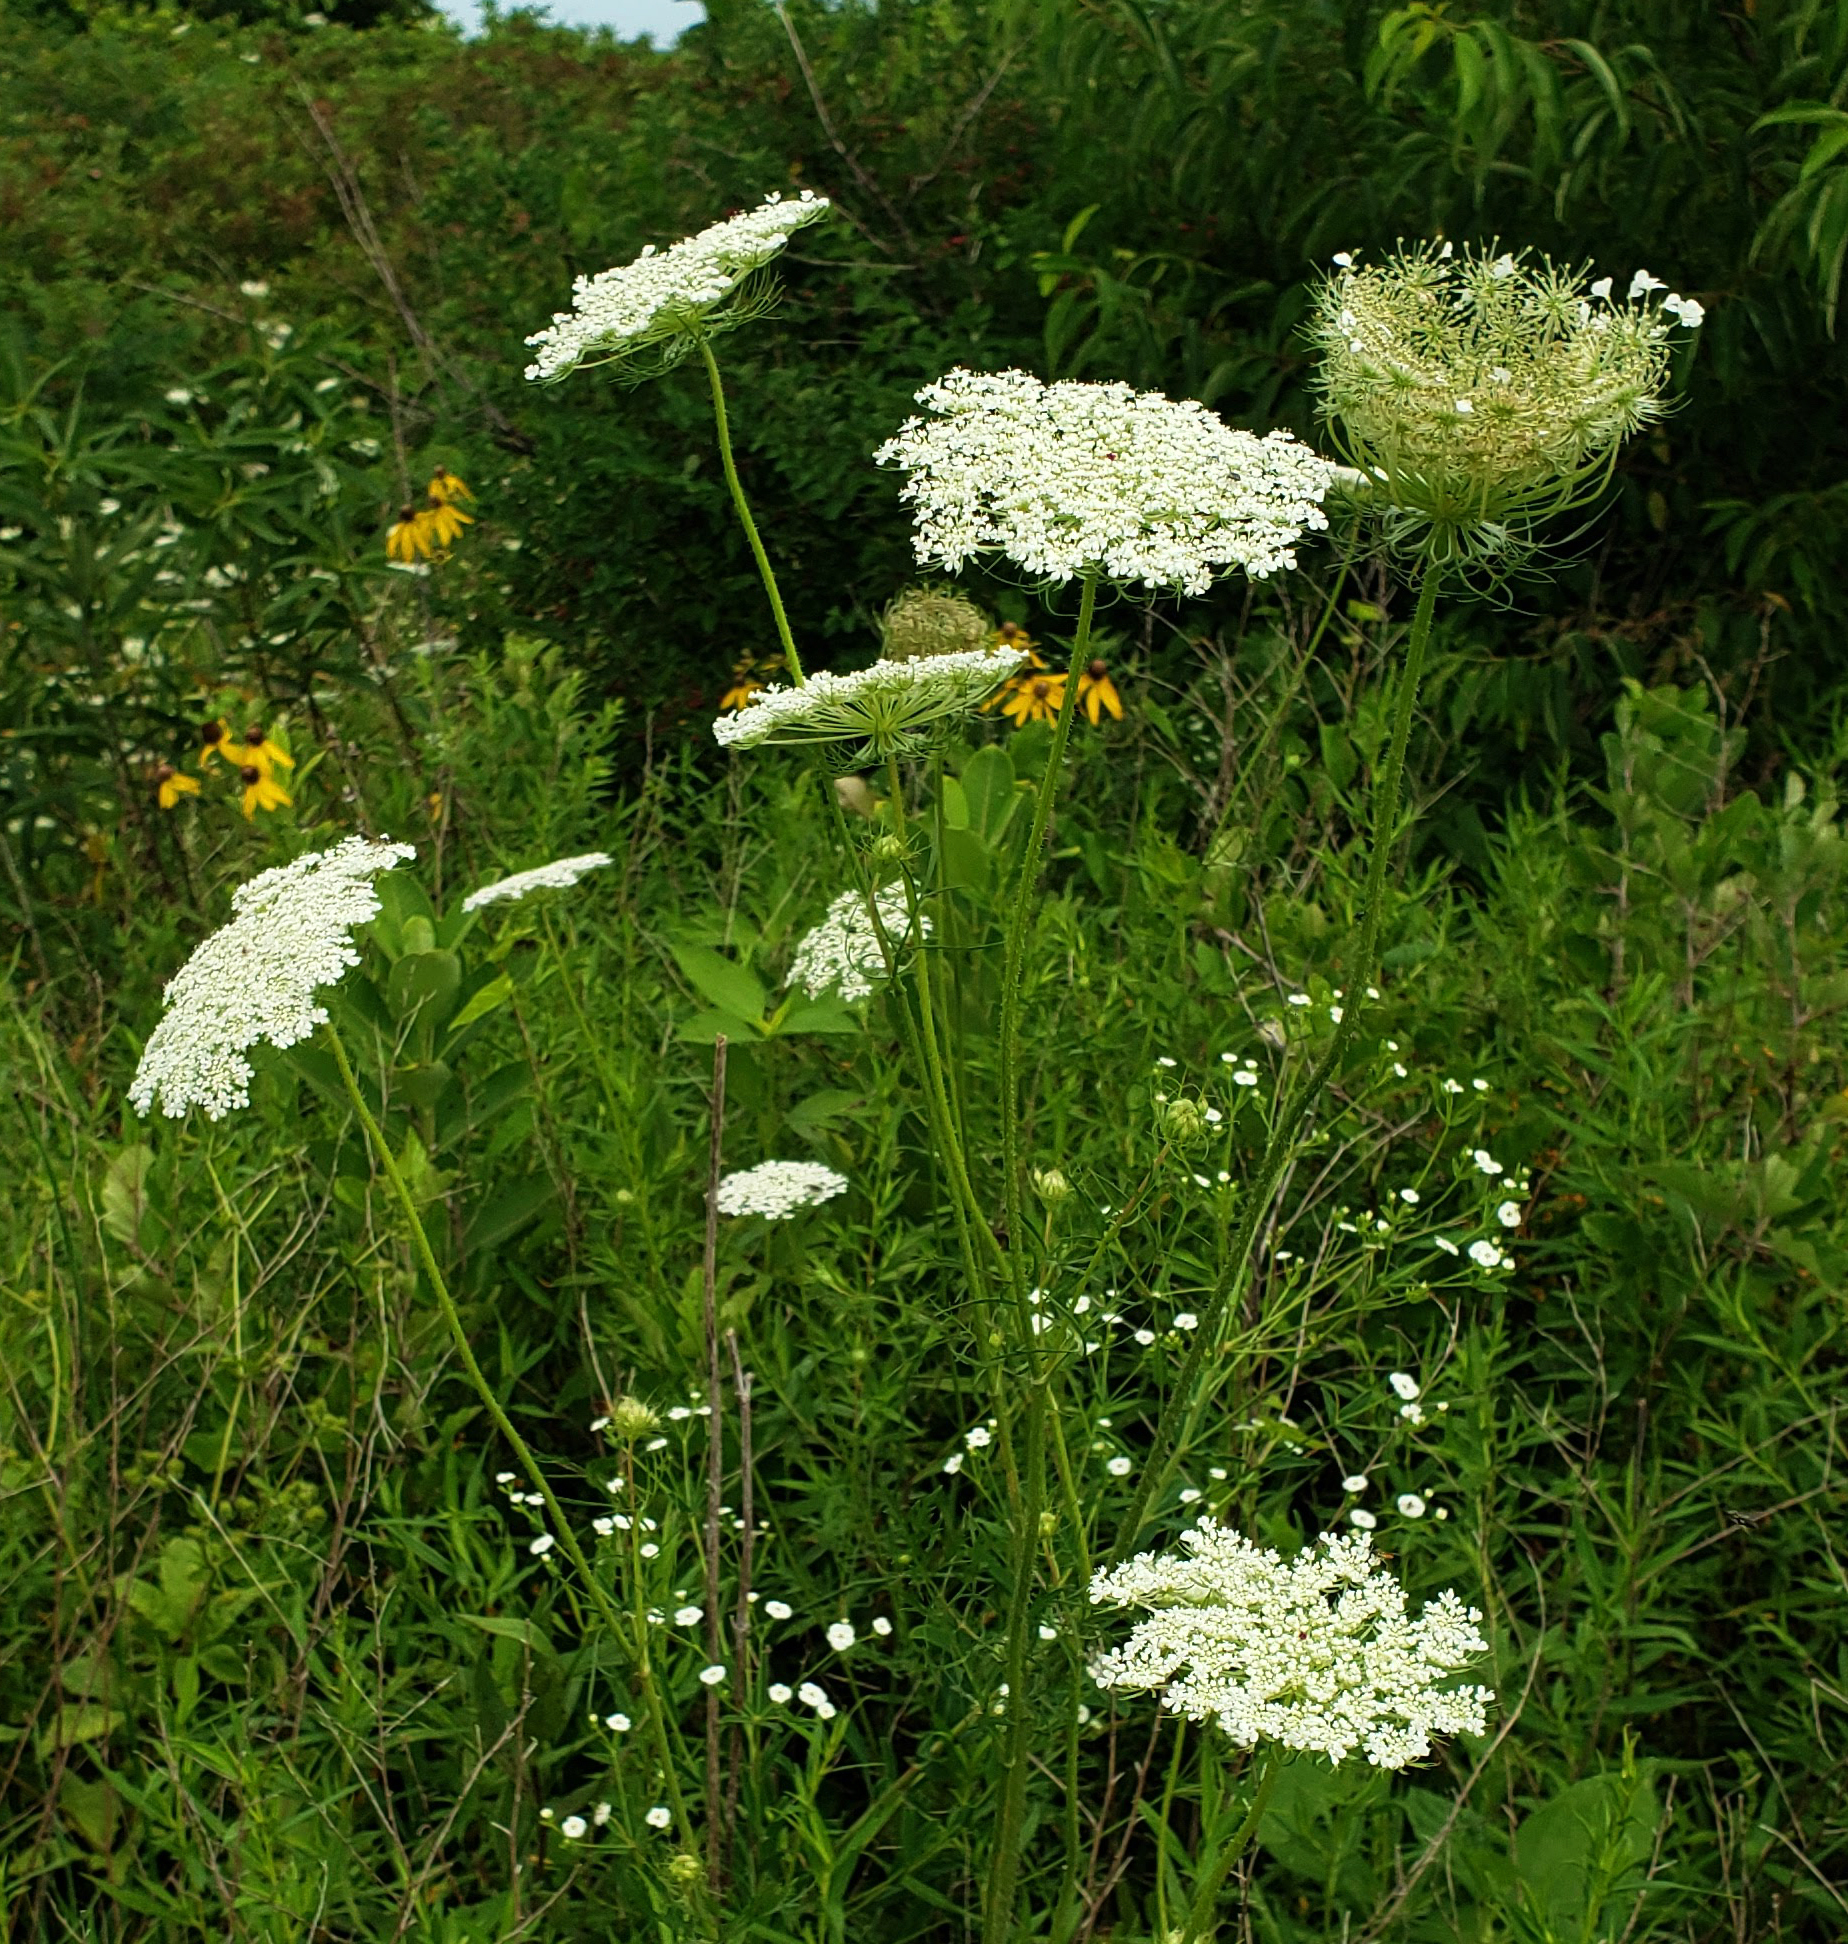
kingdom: Plantae
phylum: Tracheophyta
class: Magnoliopsida
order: Apiales
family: Apiaceae
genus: Daucus
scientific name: Daucus carota
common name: Wild carrot
